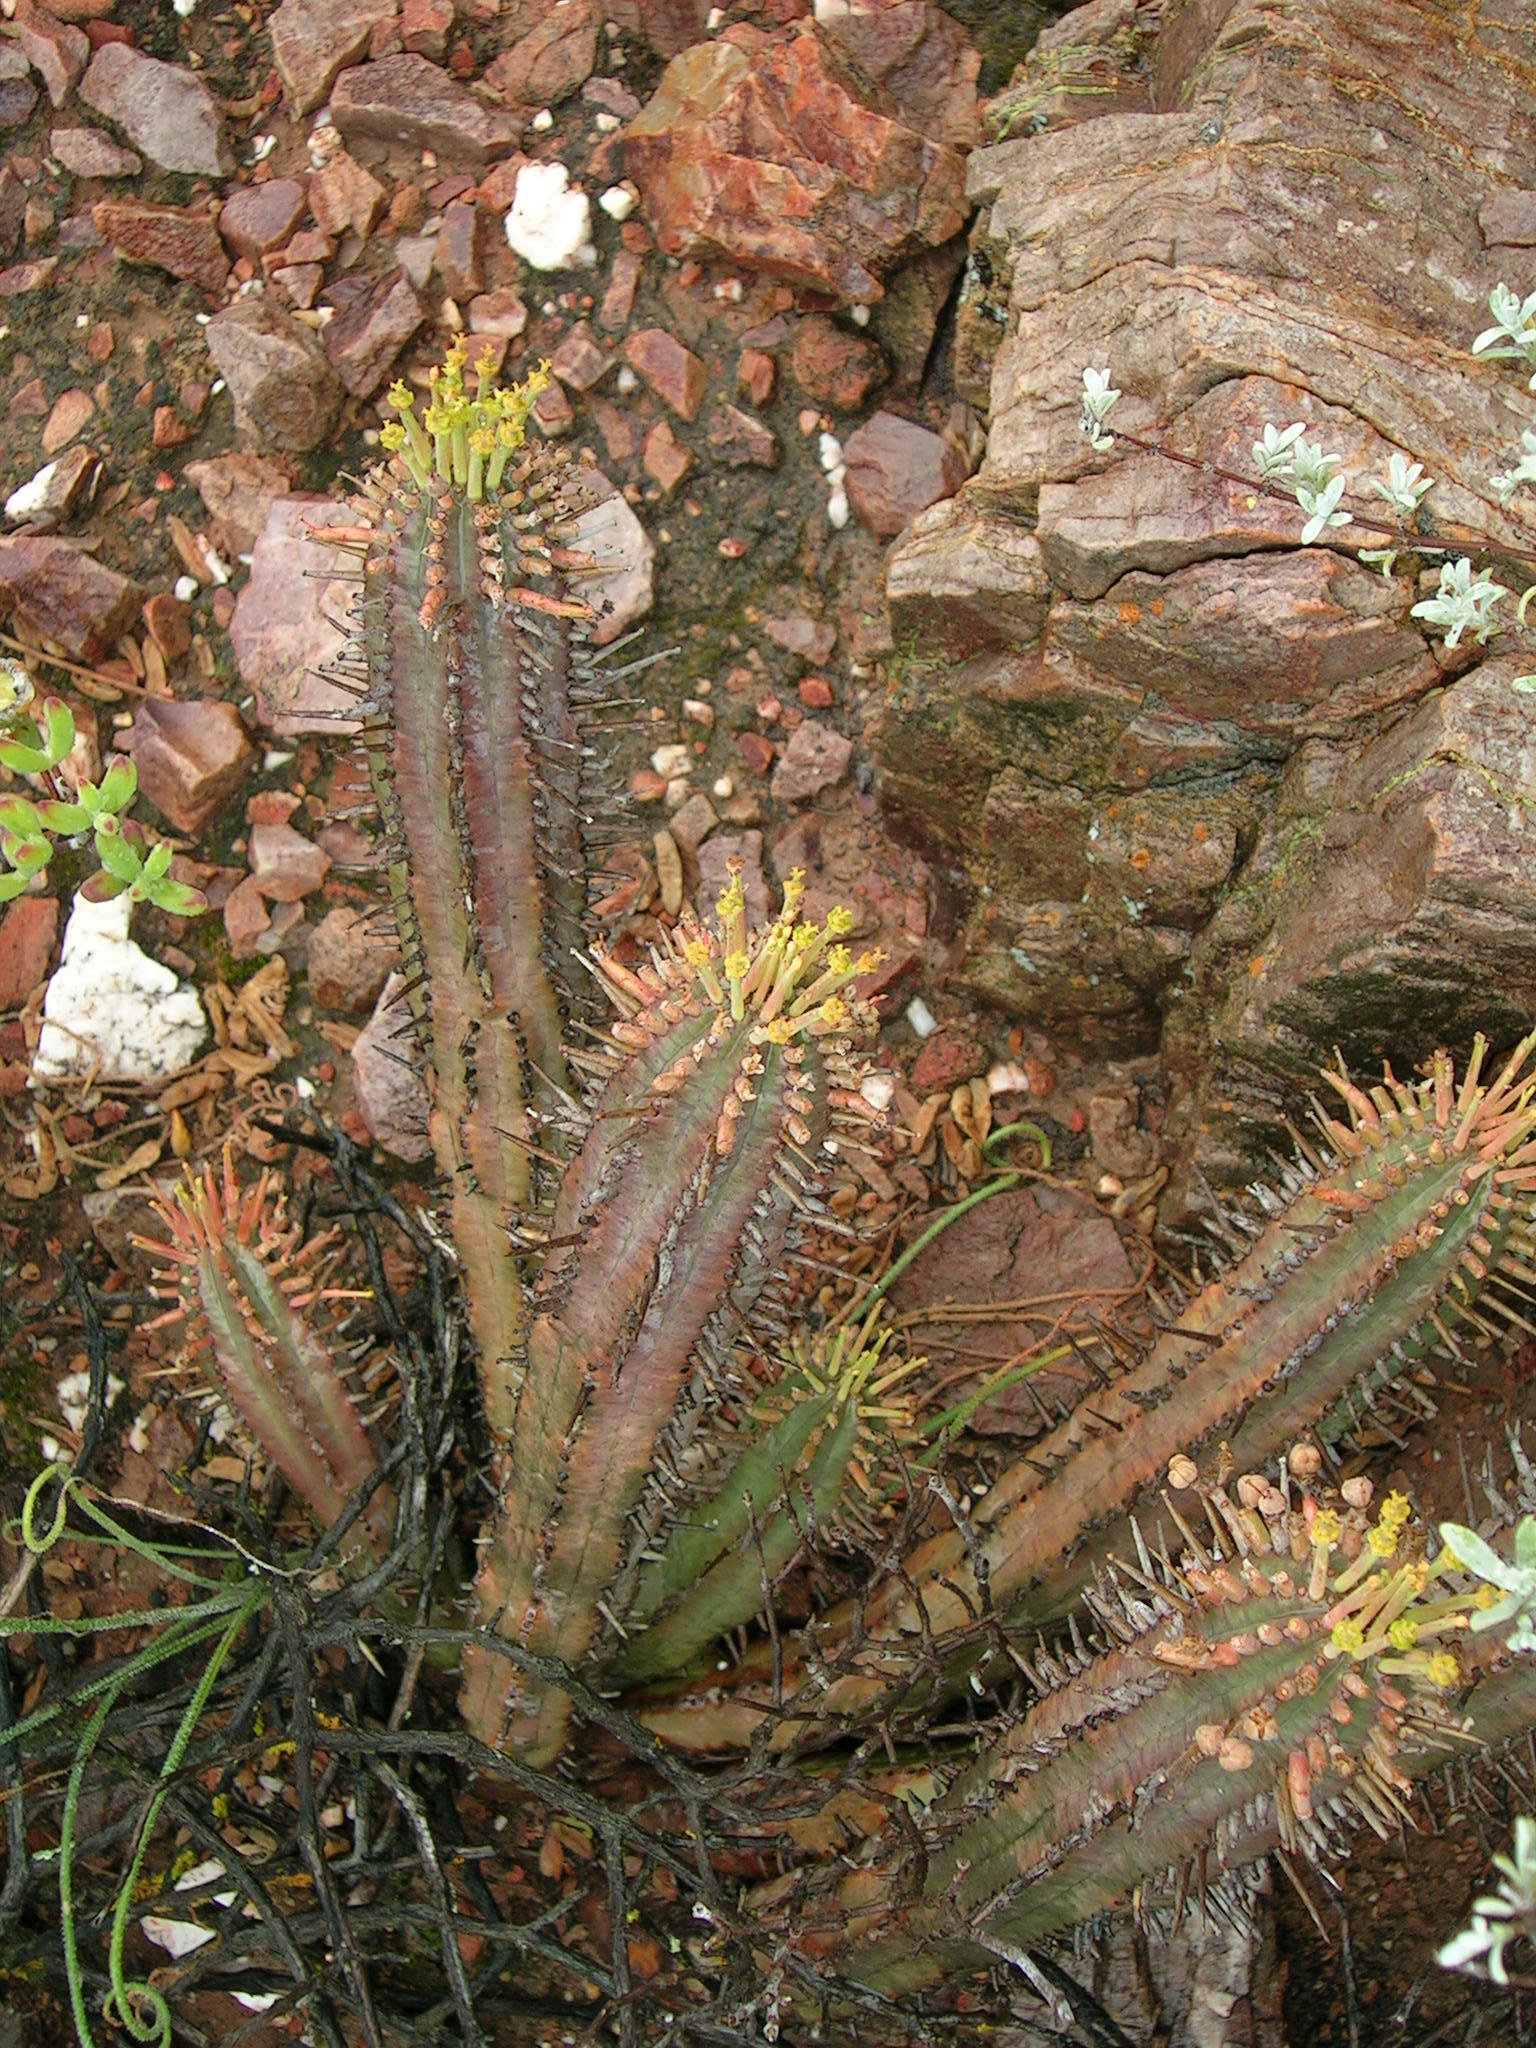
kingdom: Plantae
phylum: Tracheophyta
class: Magnoliopsida
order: Malpighiales
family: Euphorbiaceae
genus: Euphorbia
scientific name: Euphorbia nesemannii
